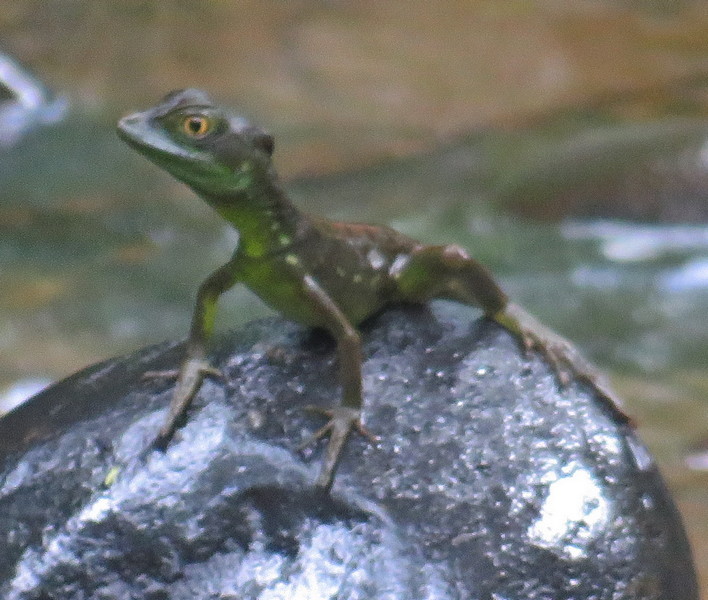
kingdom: Animalia
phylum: Chordata
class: Squamata
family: Corytophanidae
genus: Basiliscus
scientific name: Basiliscus plumifrons
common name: Green basilisk
